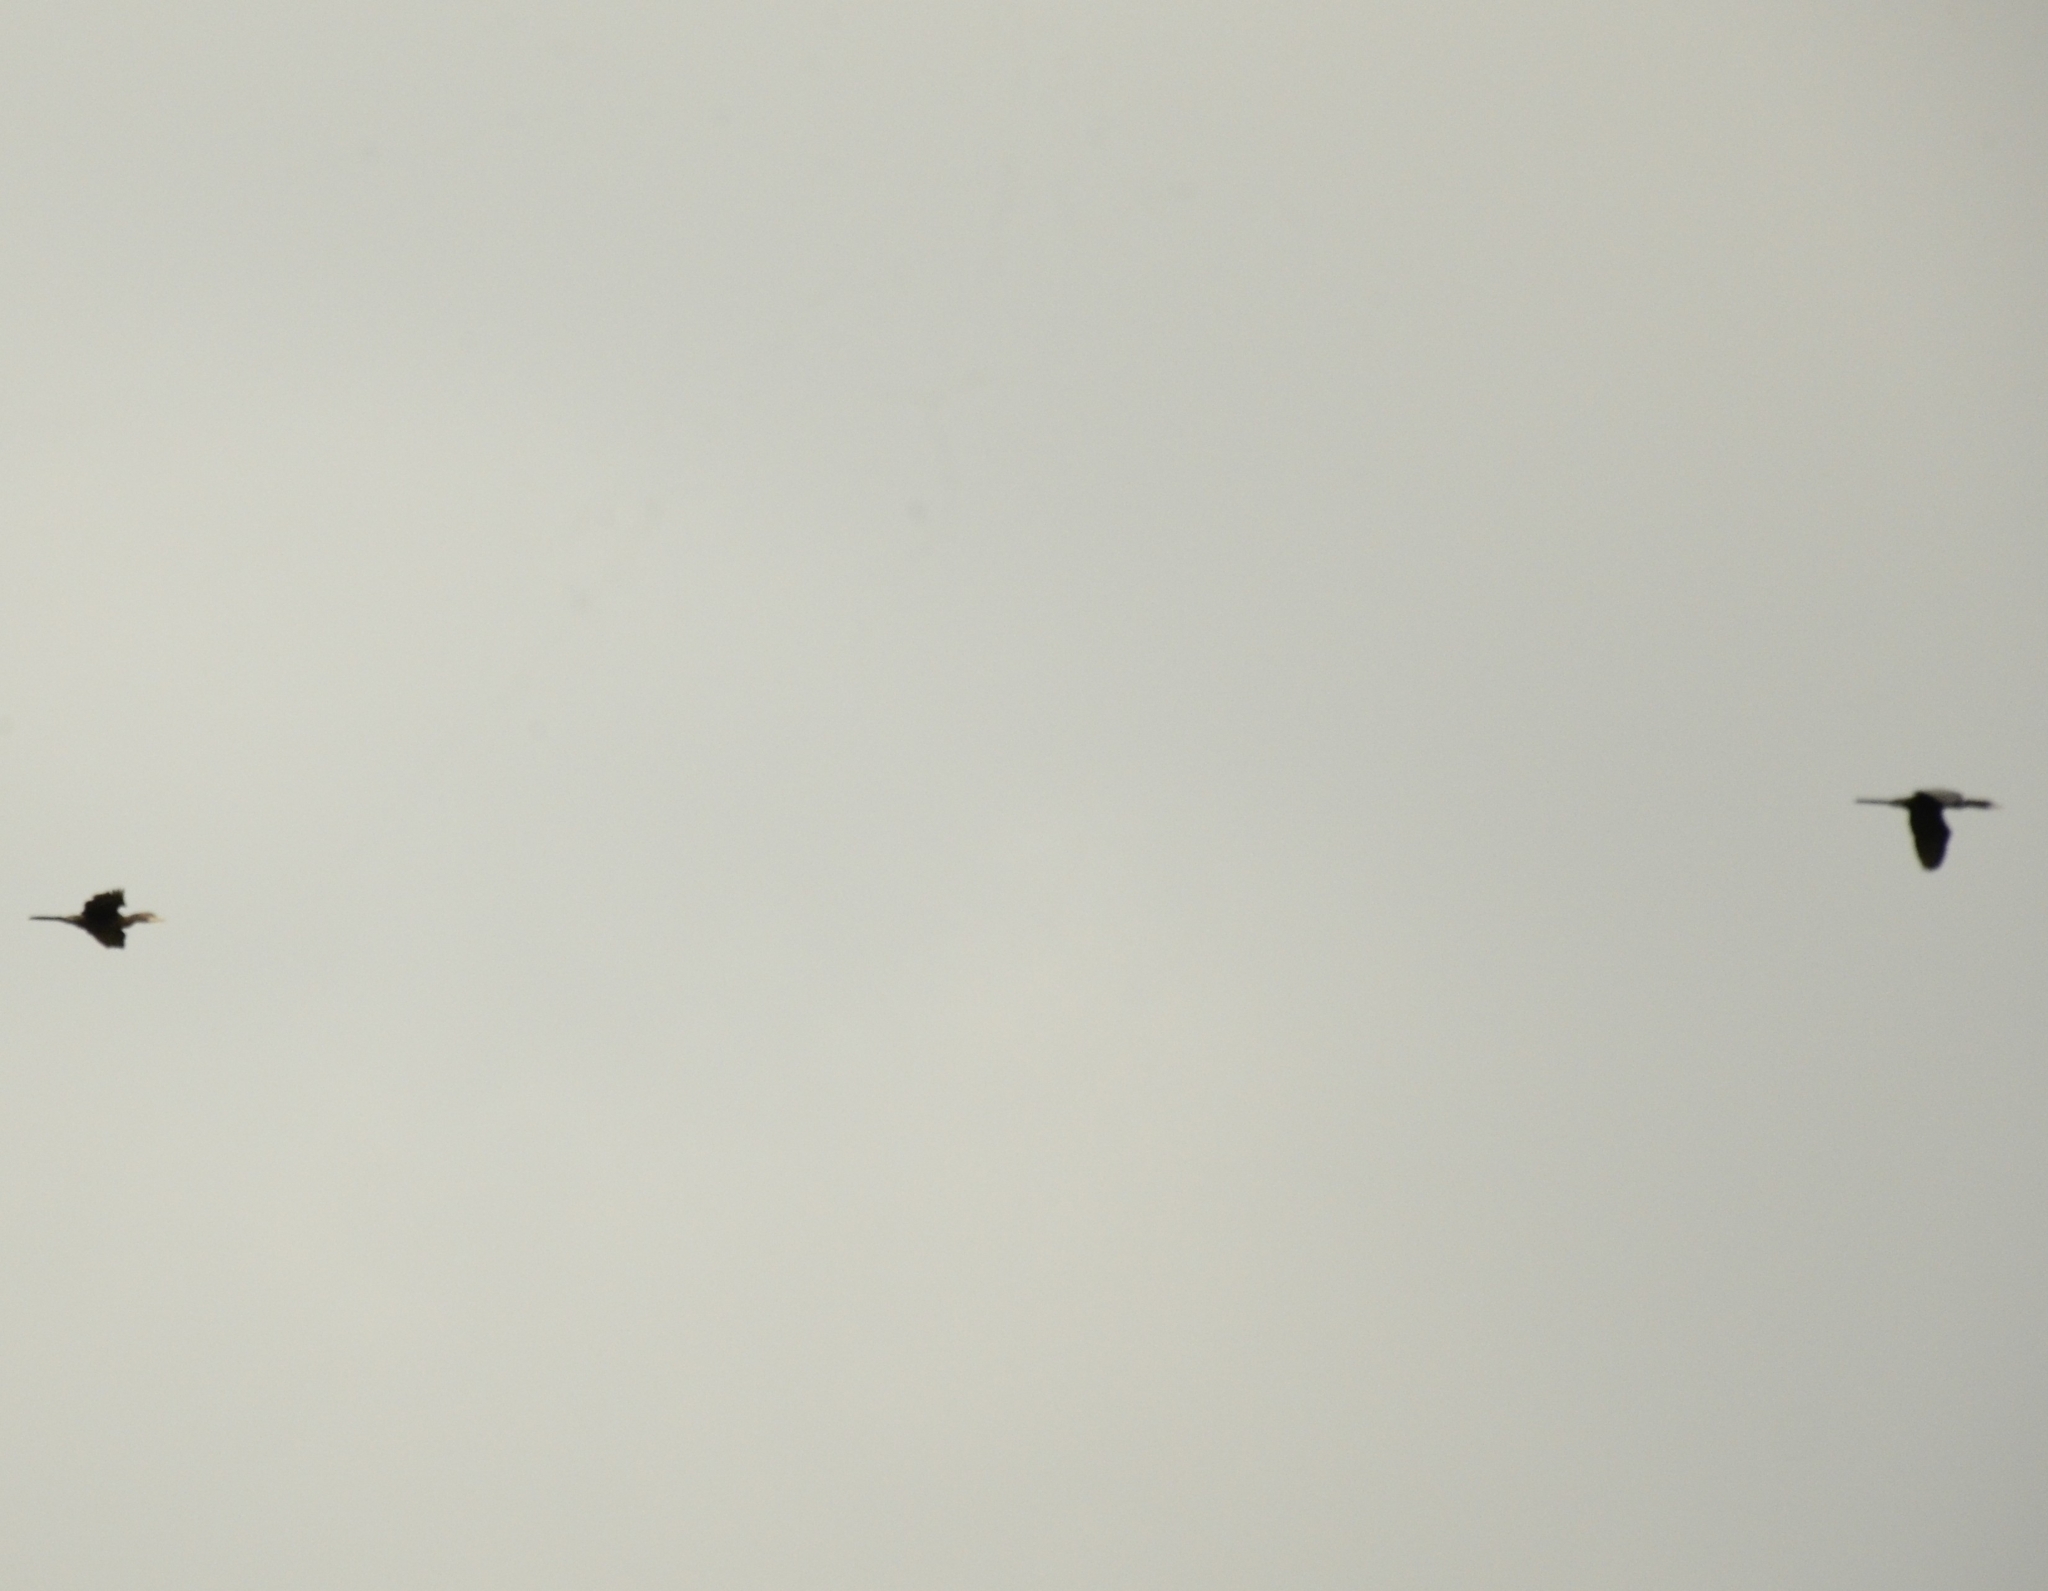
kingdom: Animalia
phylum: Chordata
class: Aves
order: Suliformes
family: Phalacrocoracidae
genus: Microcarbo
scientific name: Microcarbo niger
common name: Little cormorant
